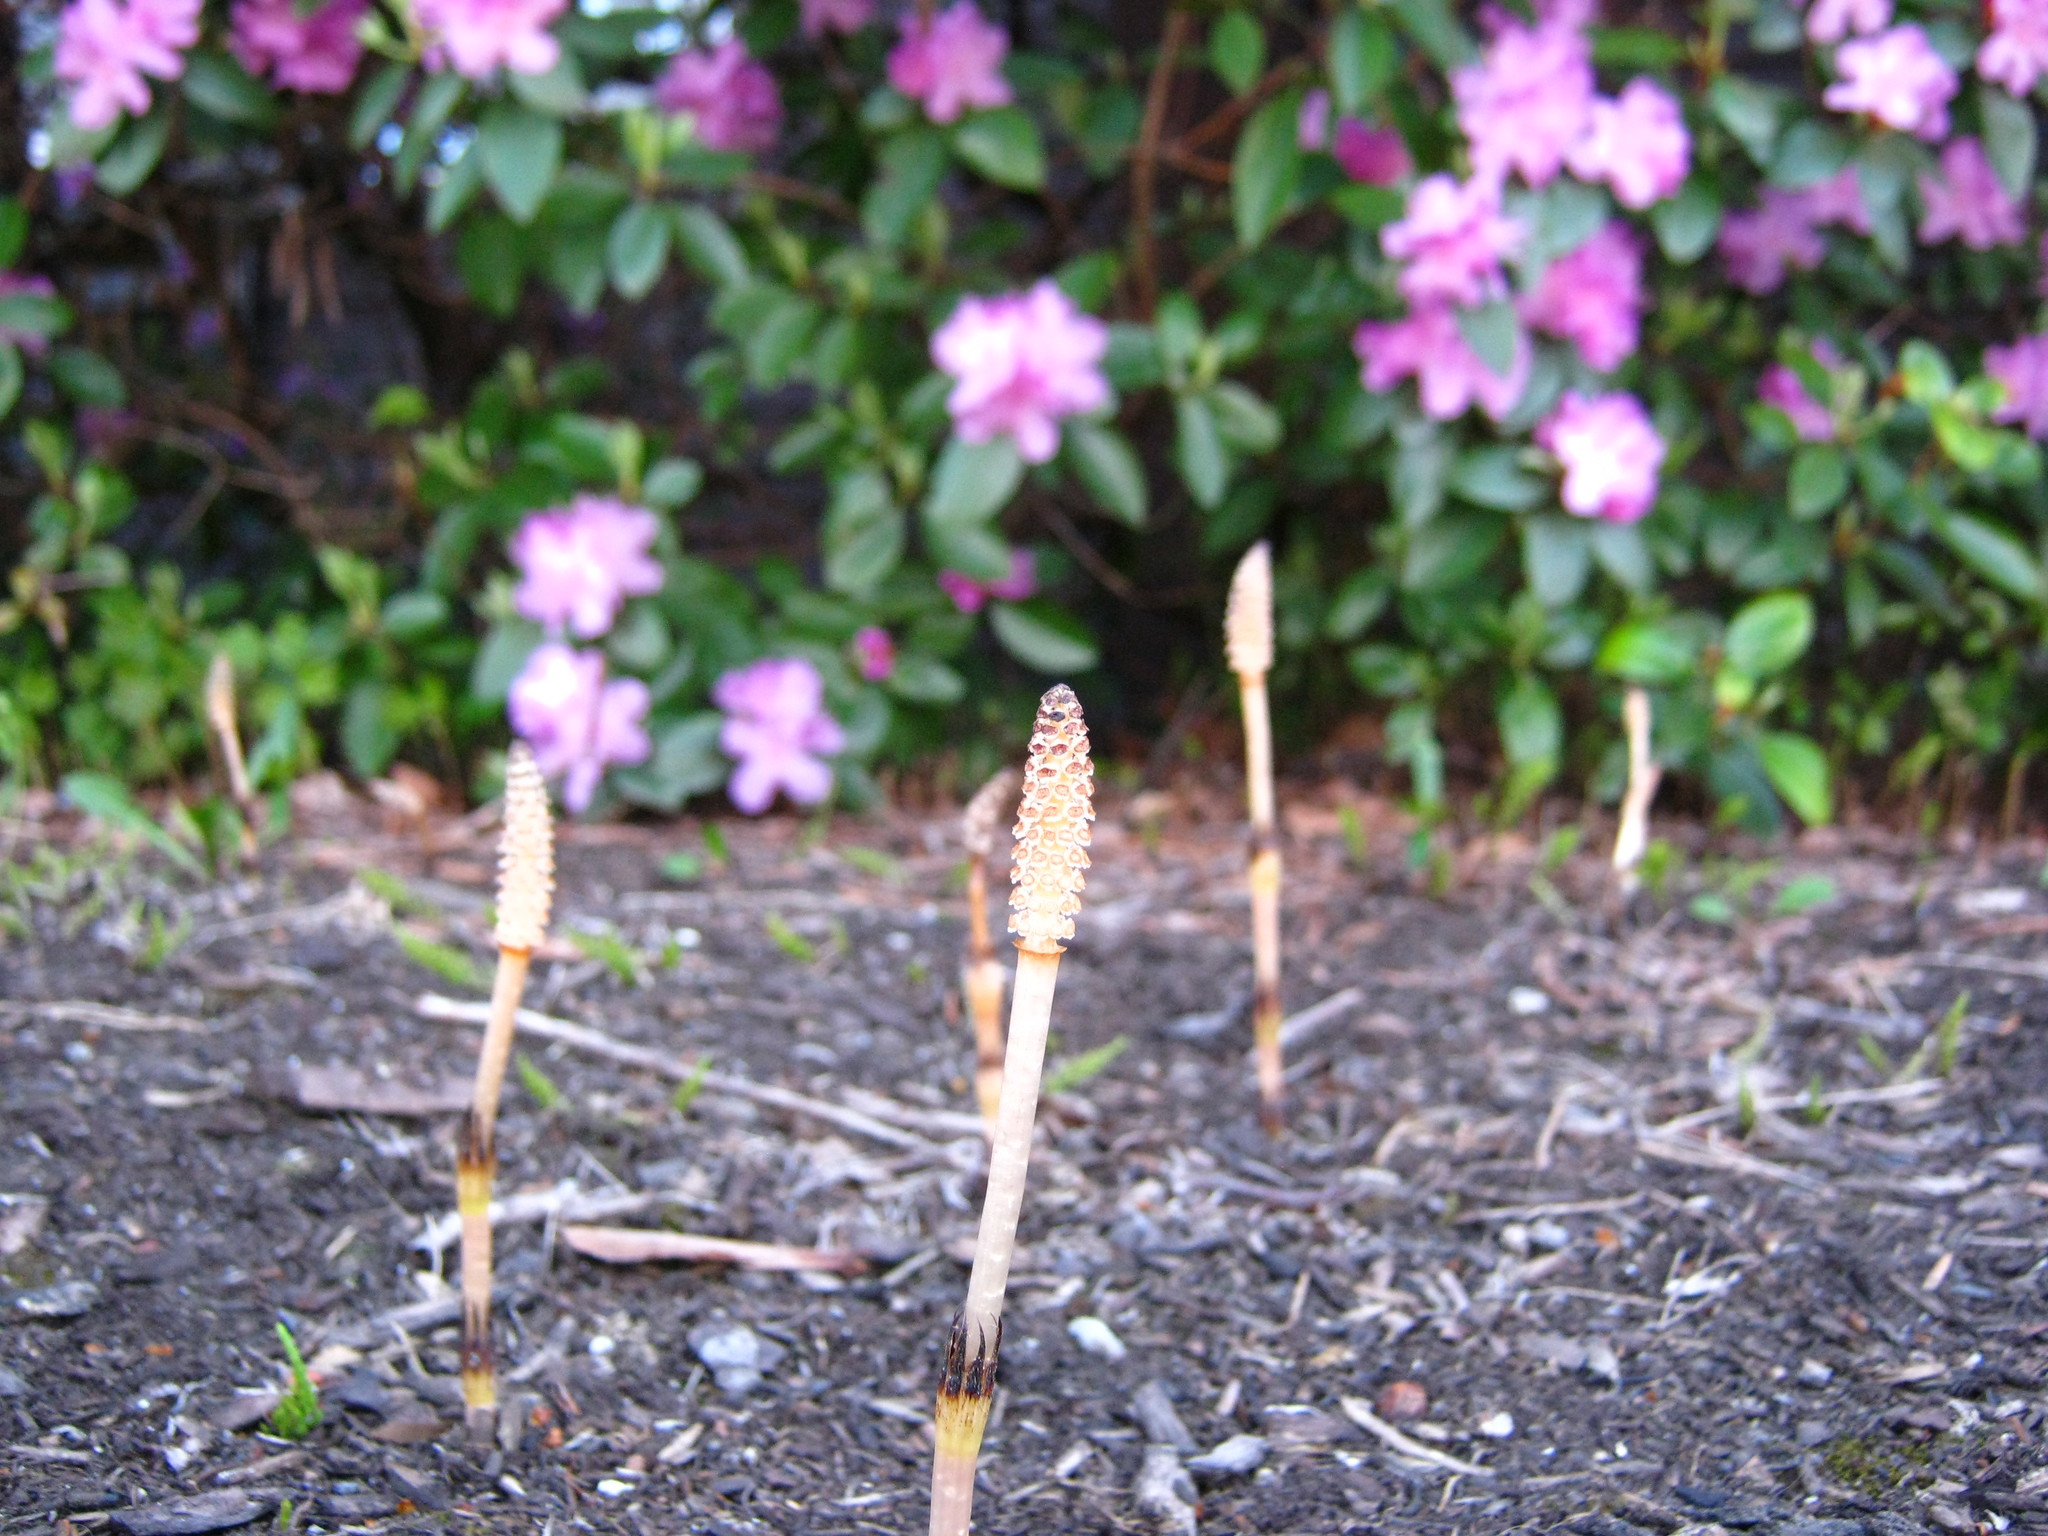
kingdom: Plantae
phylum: Tracheophyta
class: Polypodiopsida
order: Equisetales
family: Equisetaceae
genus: Equisetum
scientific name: Equisetum arvense
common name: Field horsetail
